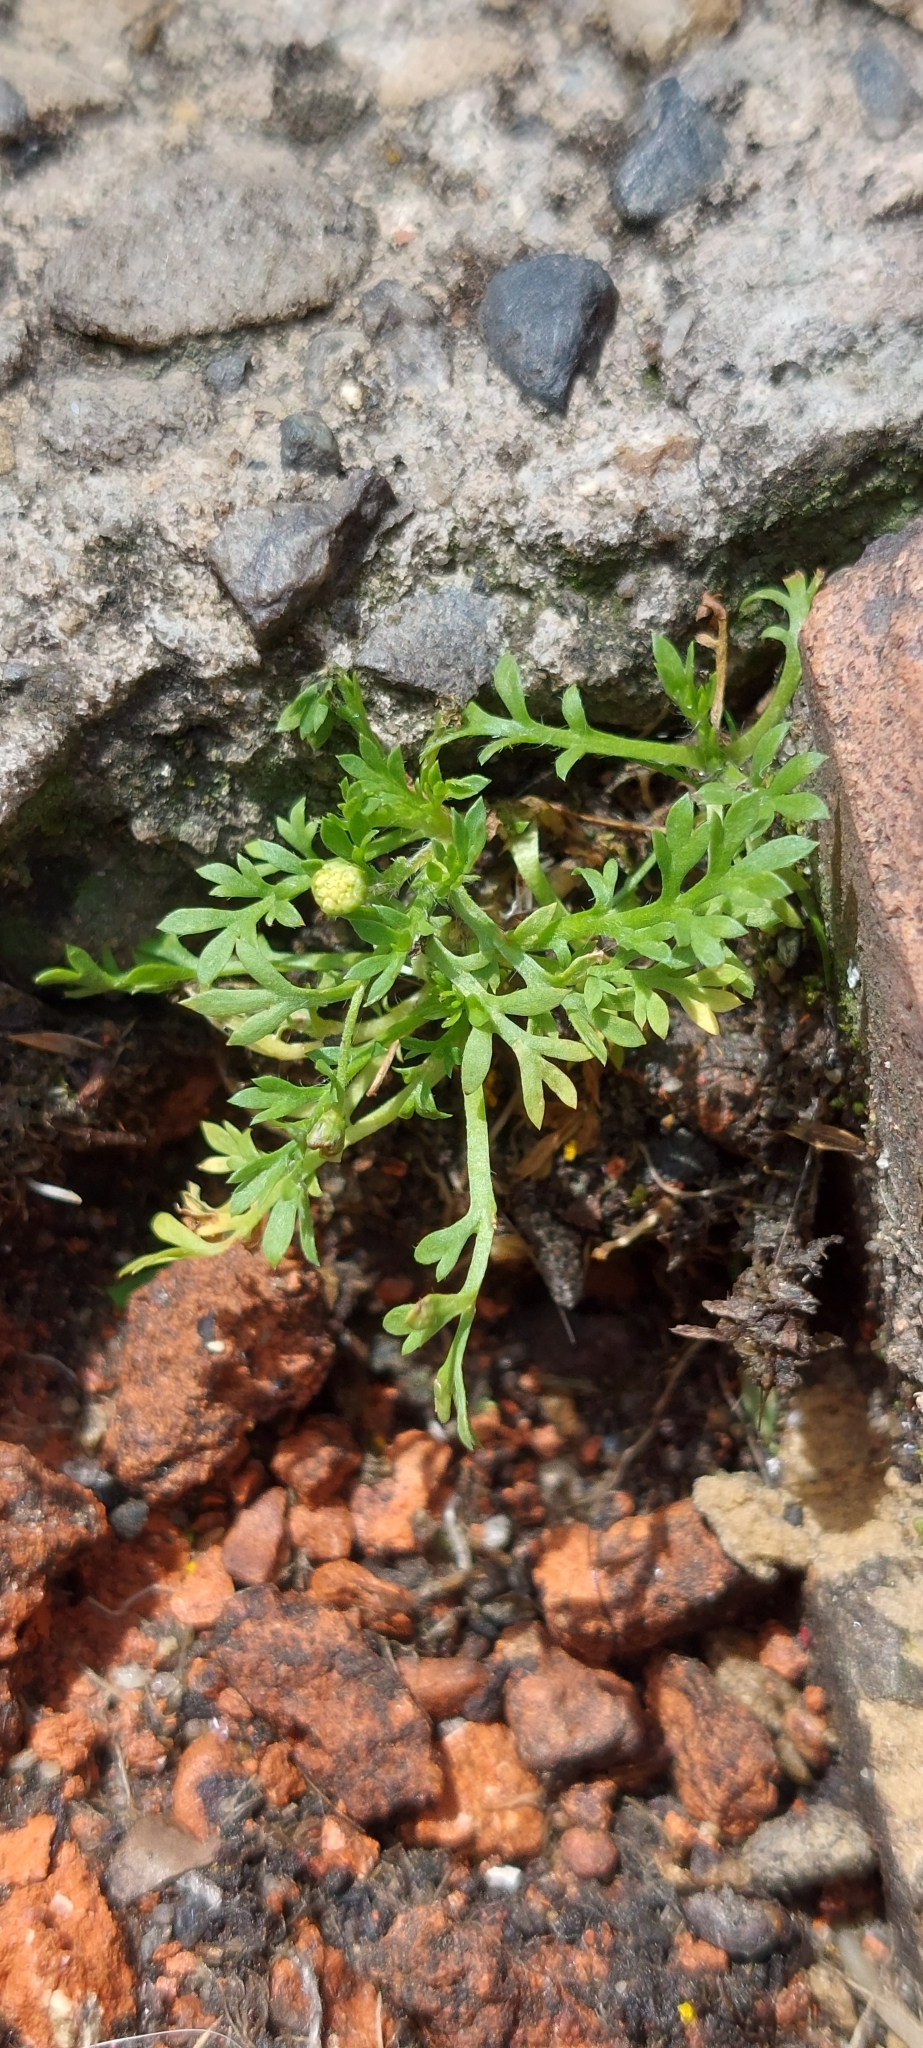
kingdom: Plantae
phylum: Tracheophyta
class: Magnoliopsida
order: Asterales
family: Asteraceae
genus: Cotula
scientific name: Cotula australis
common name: Australian waterbuttons
